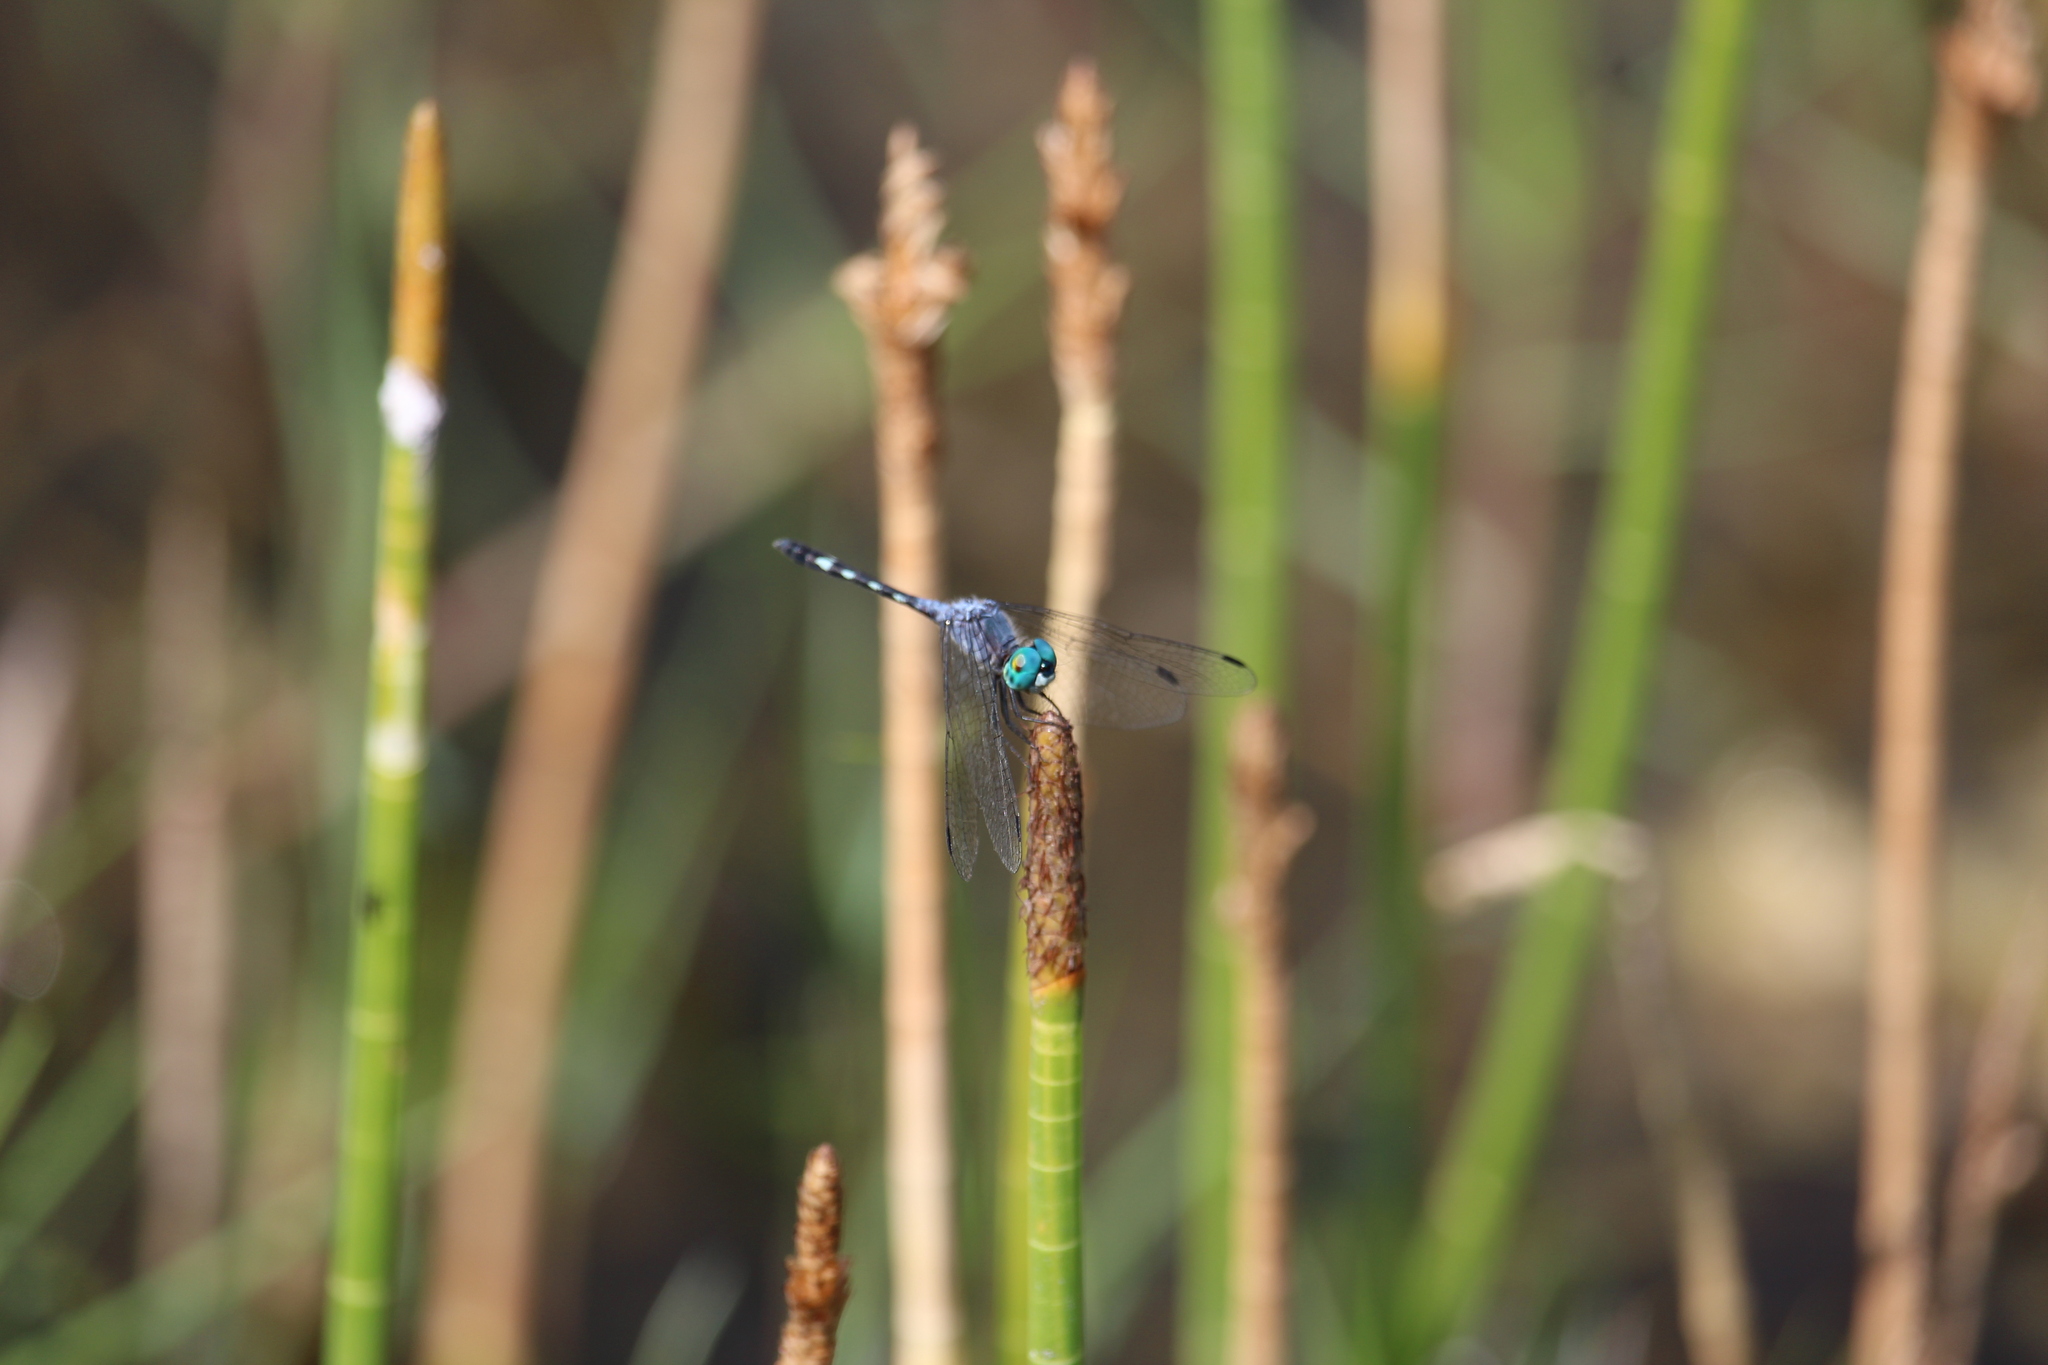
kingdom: Animalia
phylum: Arthropoda
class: Insecta
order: Odonata
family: Libellulidae
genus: Micrathyria
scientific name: Micrathyria debilis
